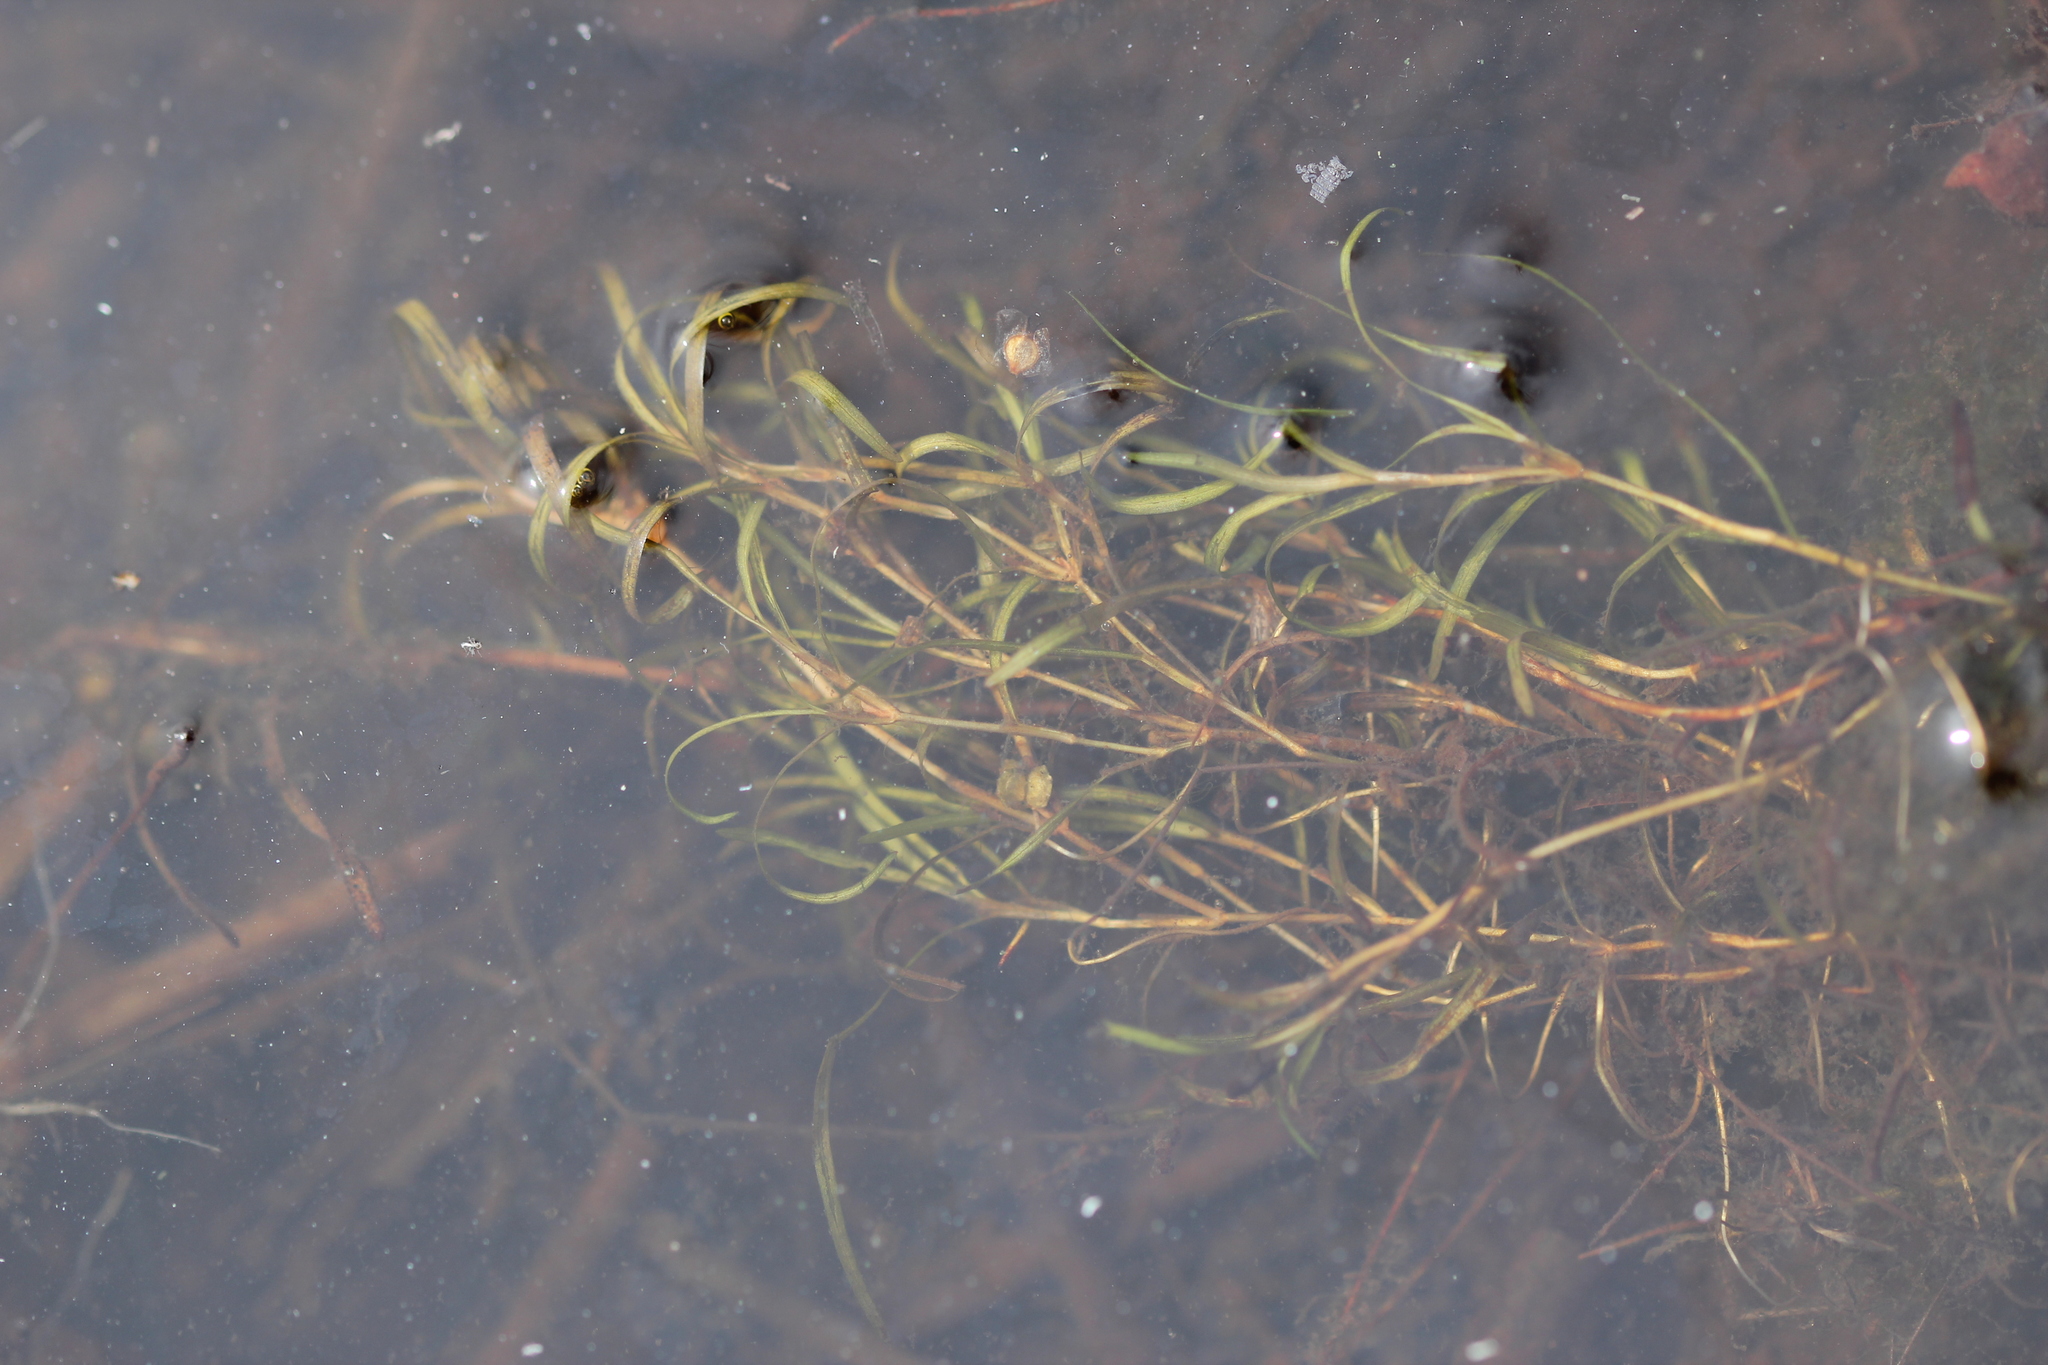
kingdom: Plantae
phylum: Tracheophyta
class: Liliopsida
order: Alismatales
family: Potamogetonaceae
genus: Potamogeton
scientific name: Potamogeton spirillus
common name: Northern snail-seed pondweed
